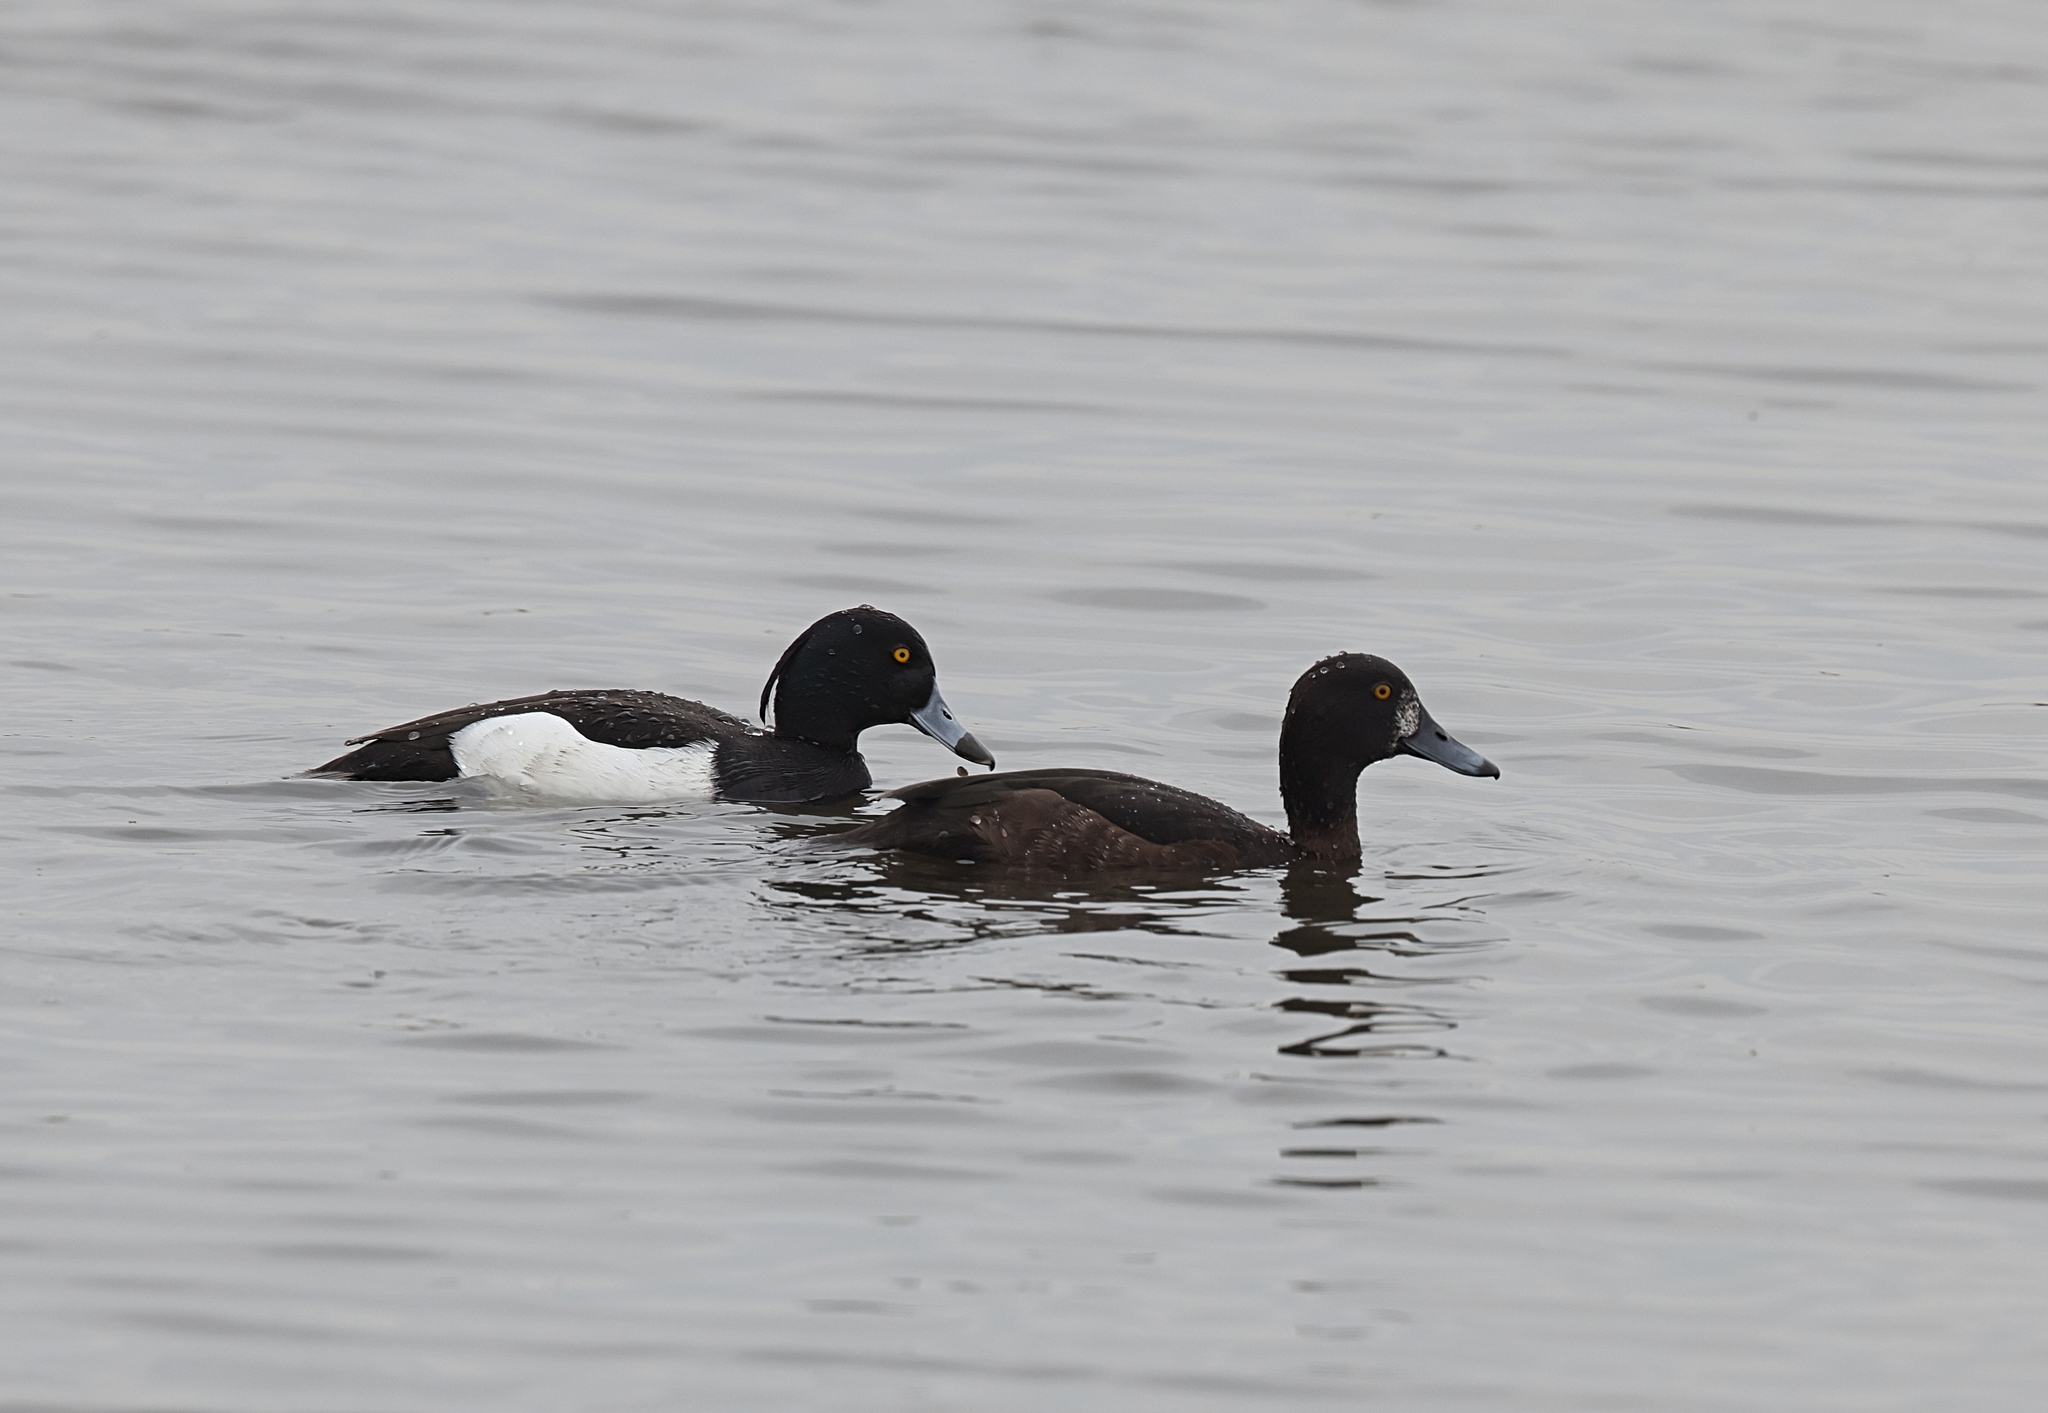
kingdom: Animalia
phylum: Chordata
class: Aves
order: Anseriformes
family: Anatidae
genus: Aythya
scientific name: Aythya fuligula
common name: Tufted duck
